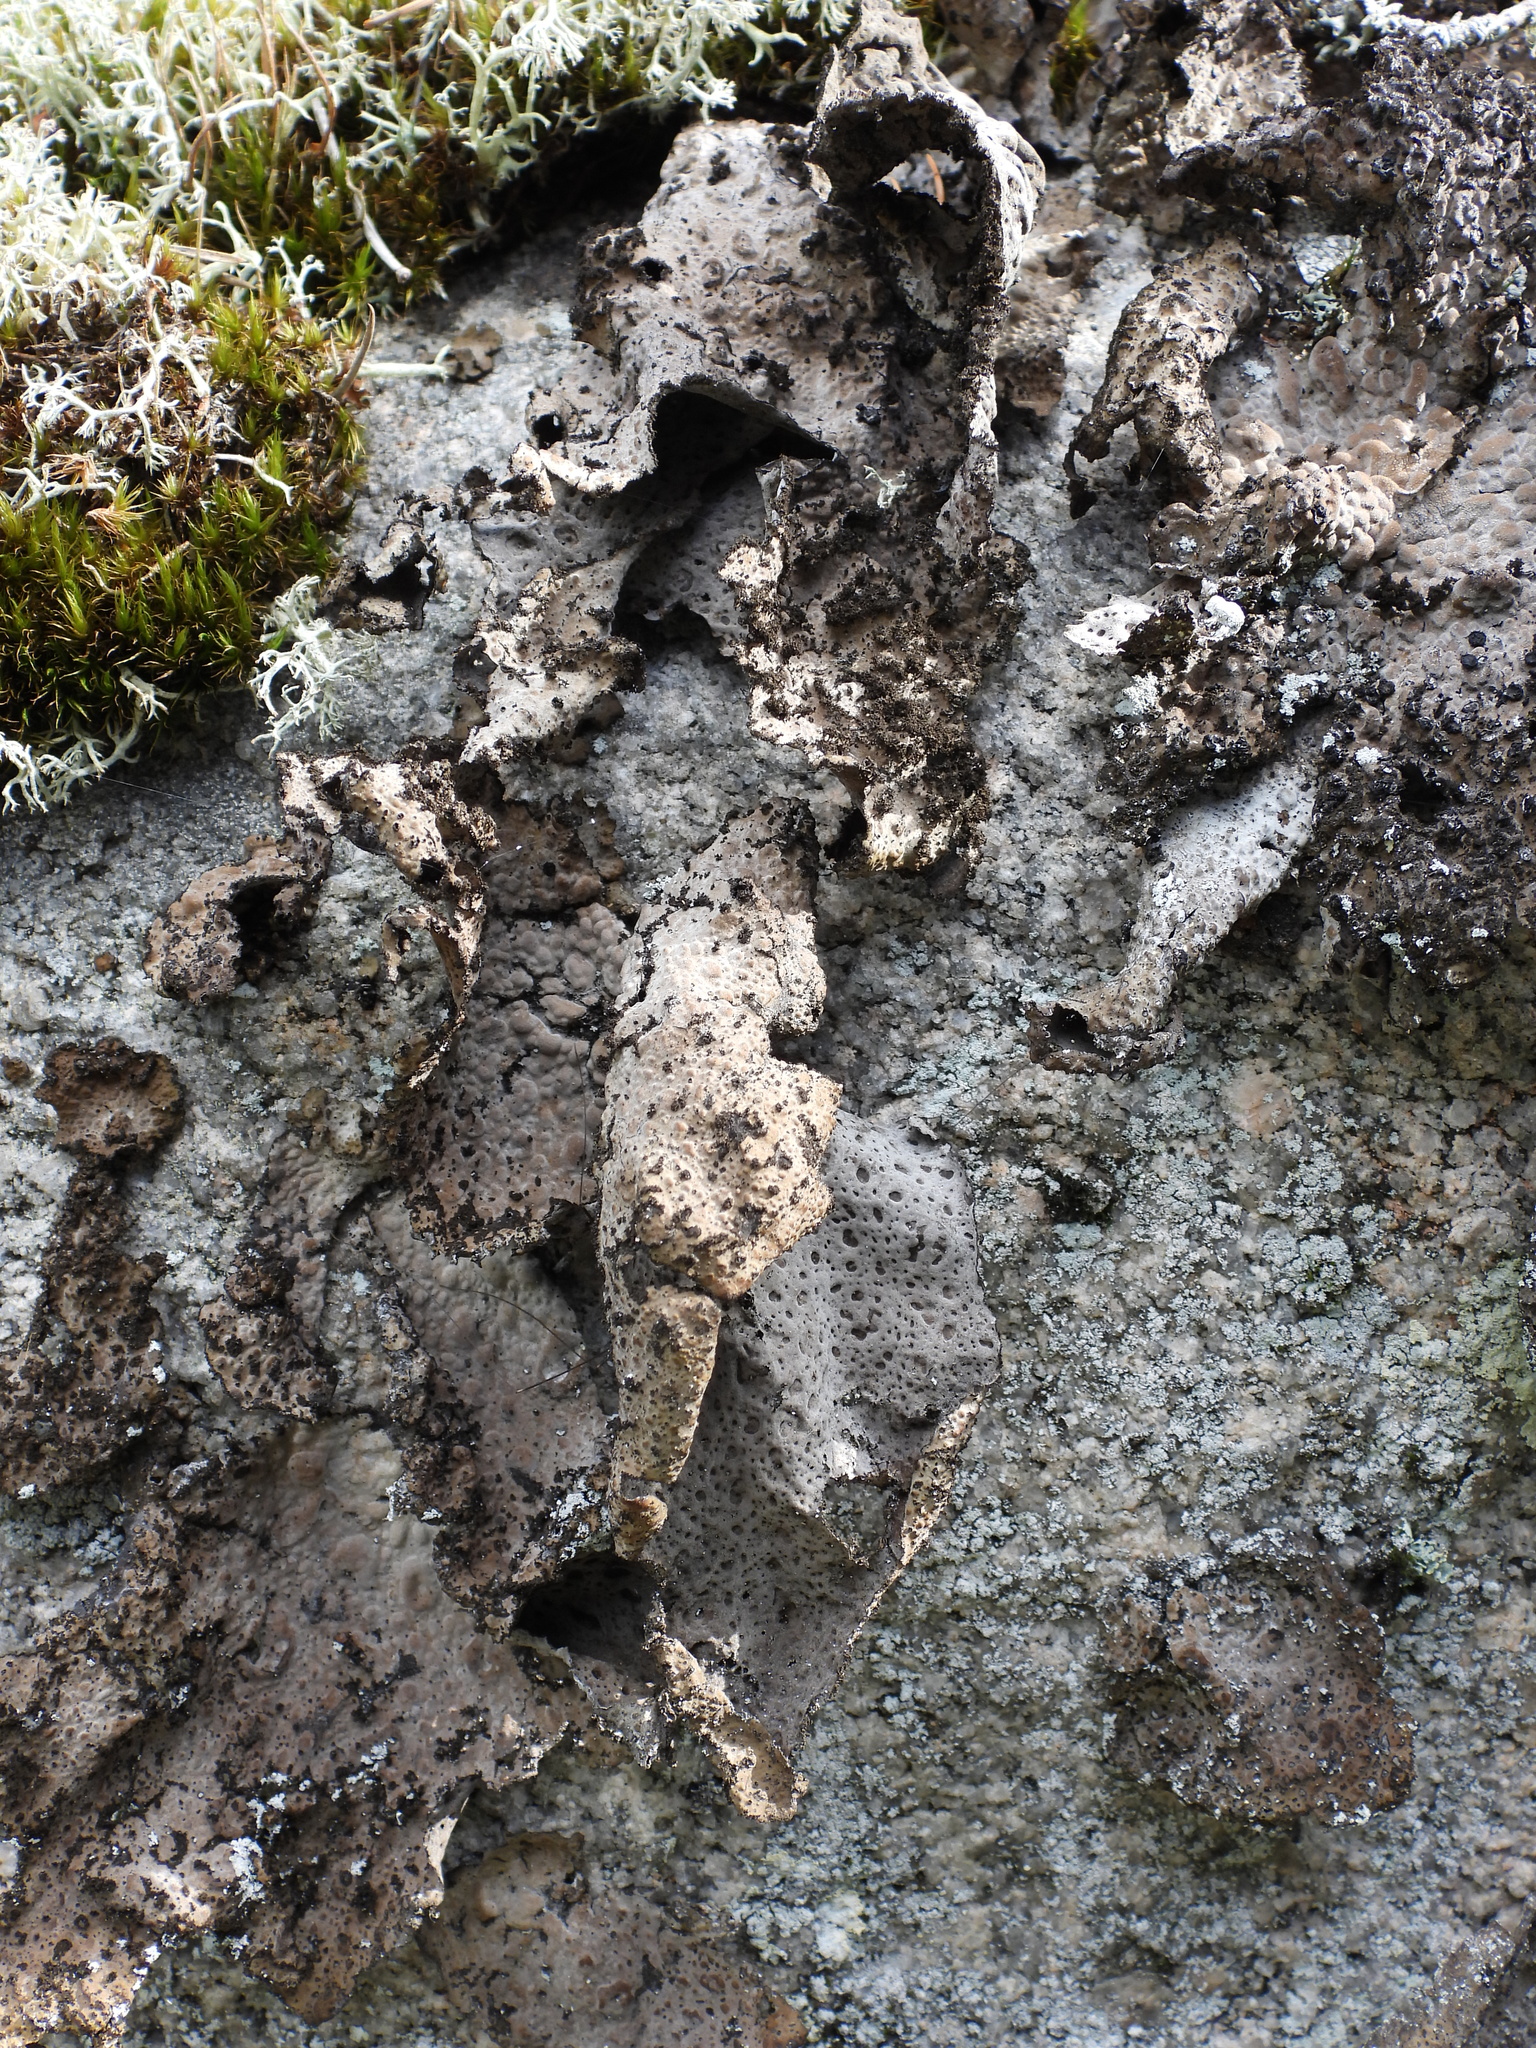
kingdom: Fungi
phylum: Ascomycota
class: Lecanoromycetes
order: Umbilicariales
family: Umbilicariaceae
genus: Lasallia
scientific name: Lasallia pustulata
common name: Blistered toadskin lichen
